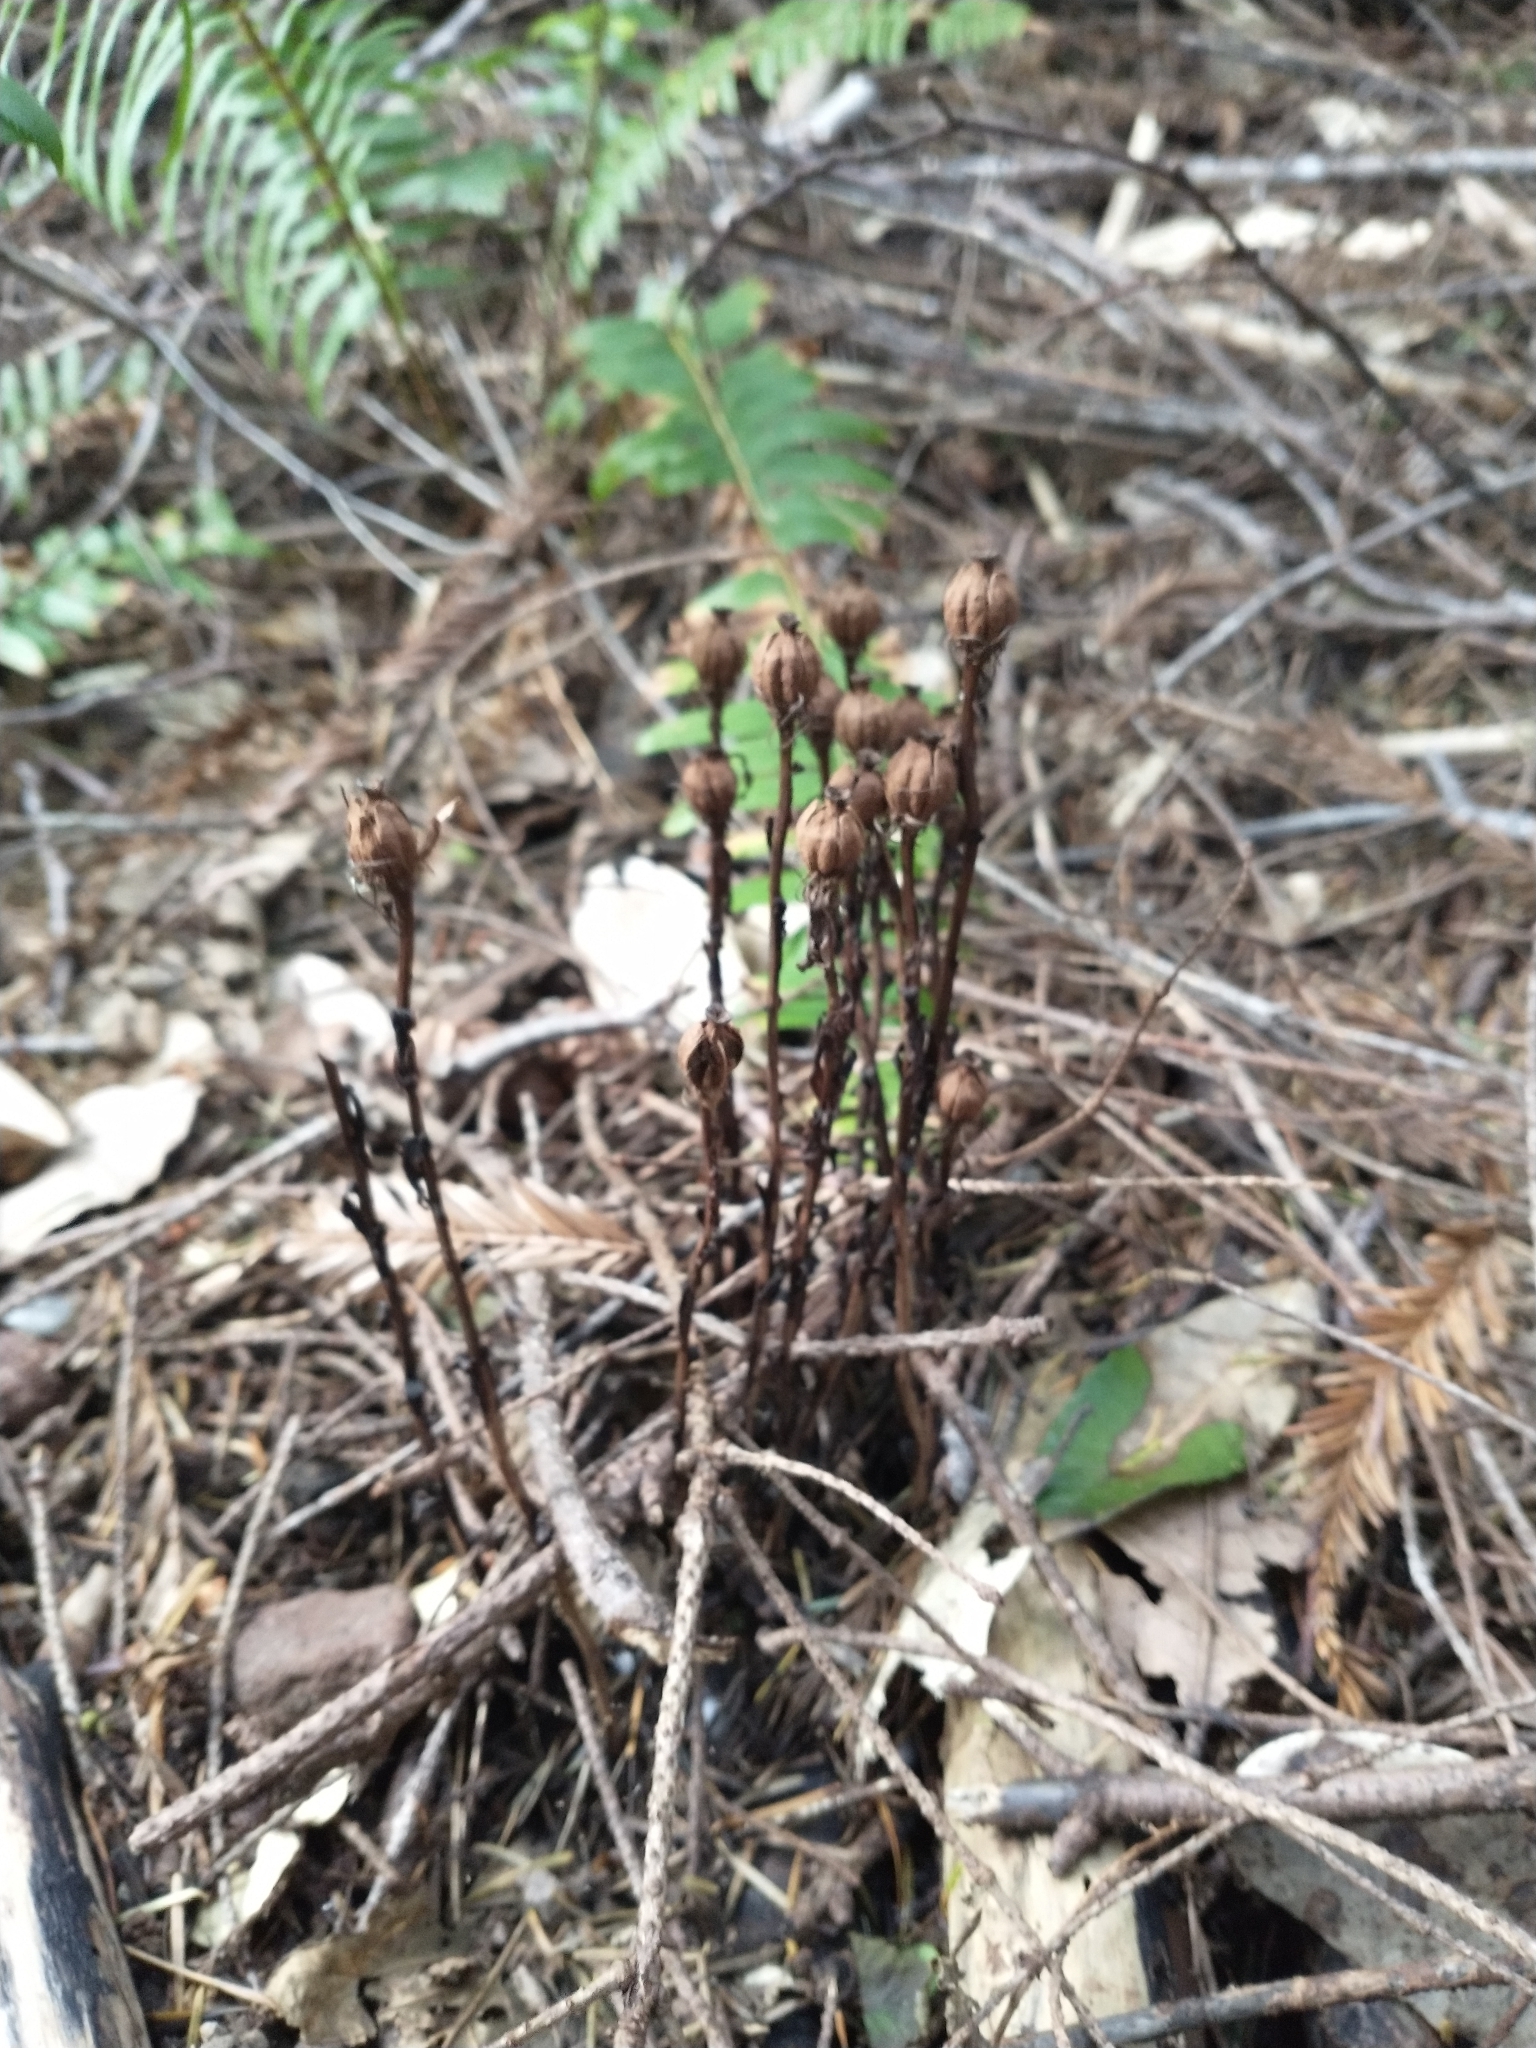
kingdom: Plantae
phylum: Tracheophyta
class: Magnoliopsida
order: Ericales
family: Ericaceae
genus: Monotropa
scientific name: Monotropa uniflora
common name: Convulsion root
